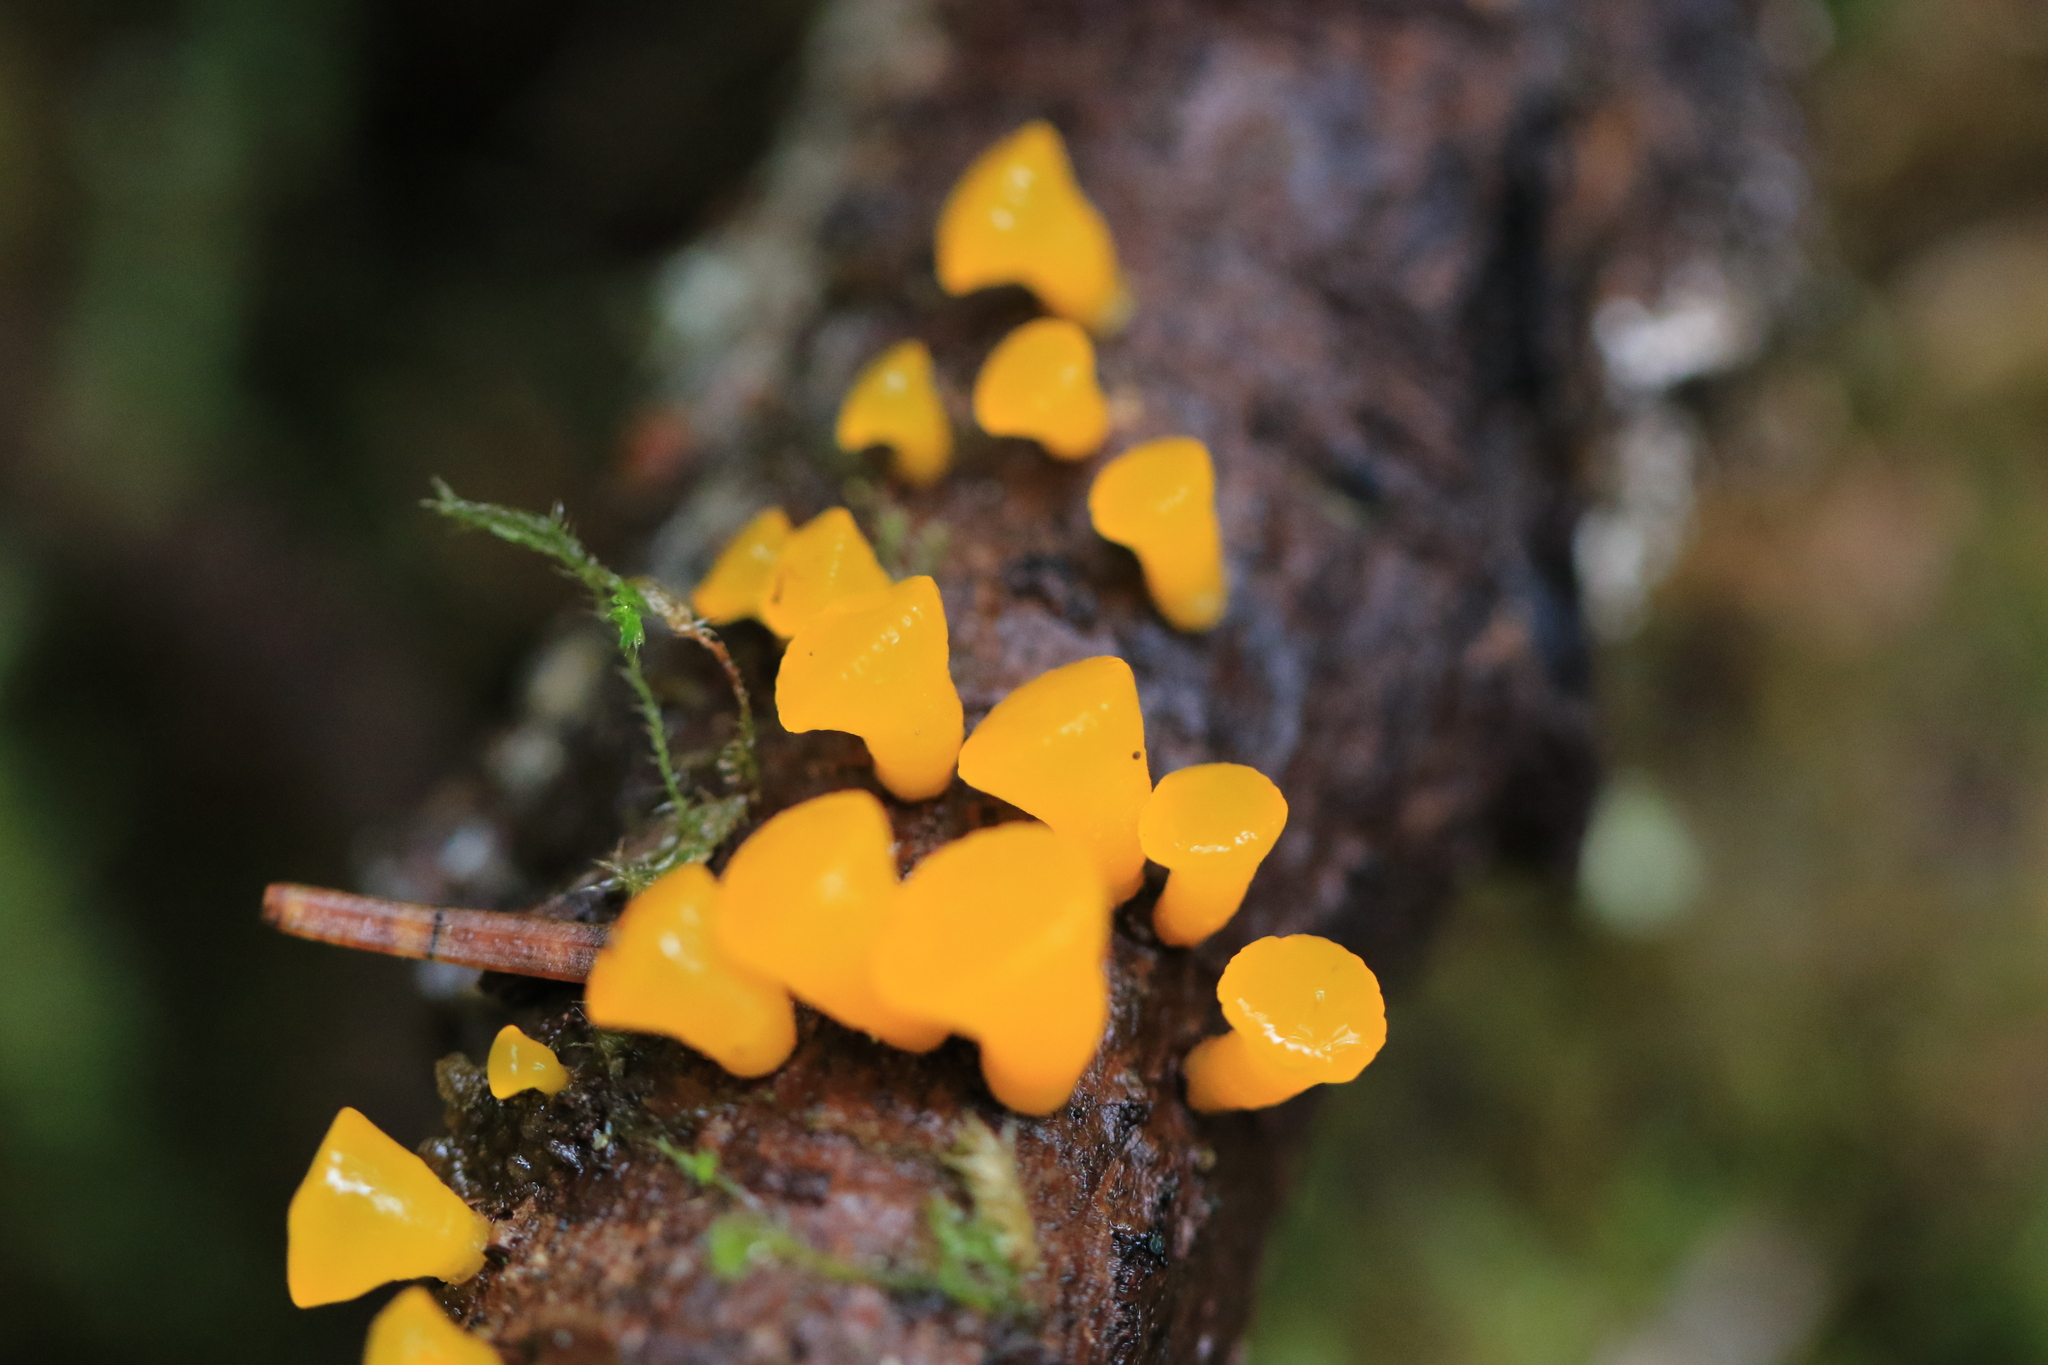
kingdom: Fungi
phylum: Basidiomycota
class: Dacrymycetes
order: Dacrymycetales
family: Dacrymycetaceae
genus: Guepiniopsis
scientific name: Guepiniopsis alpina
